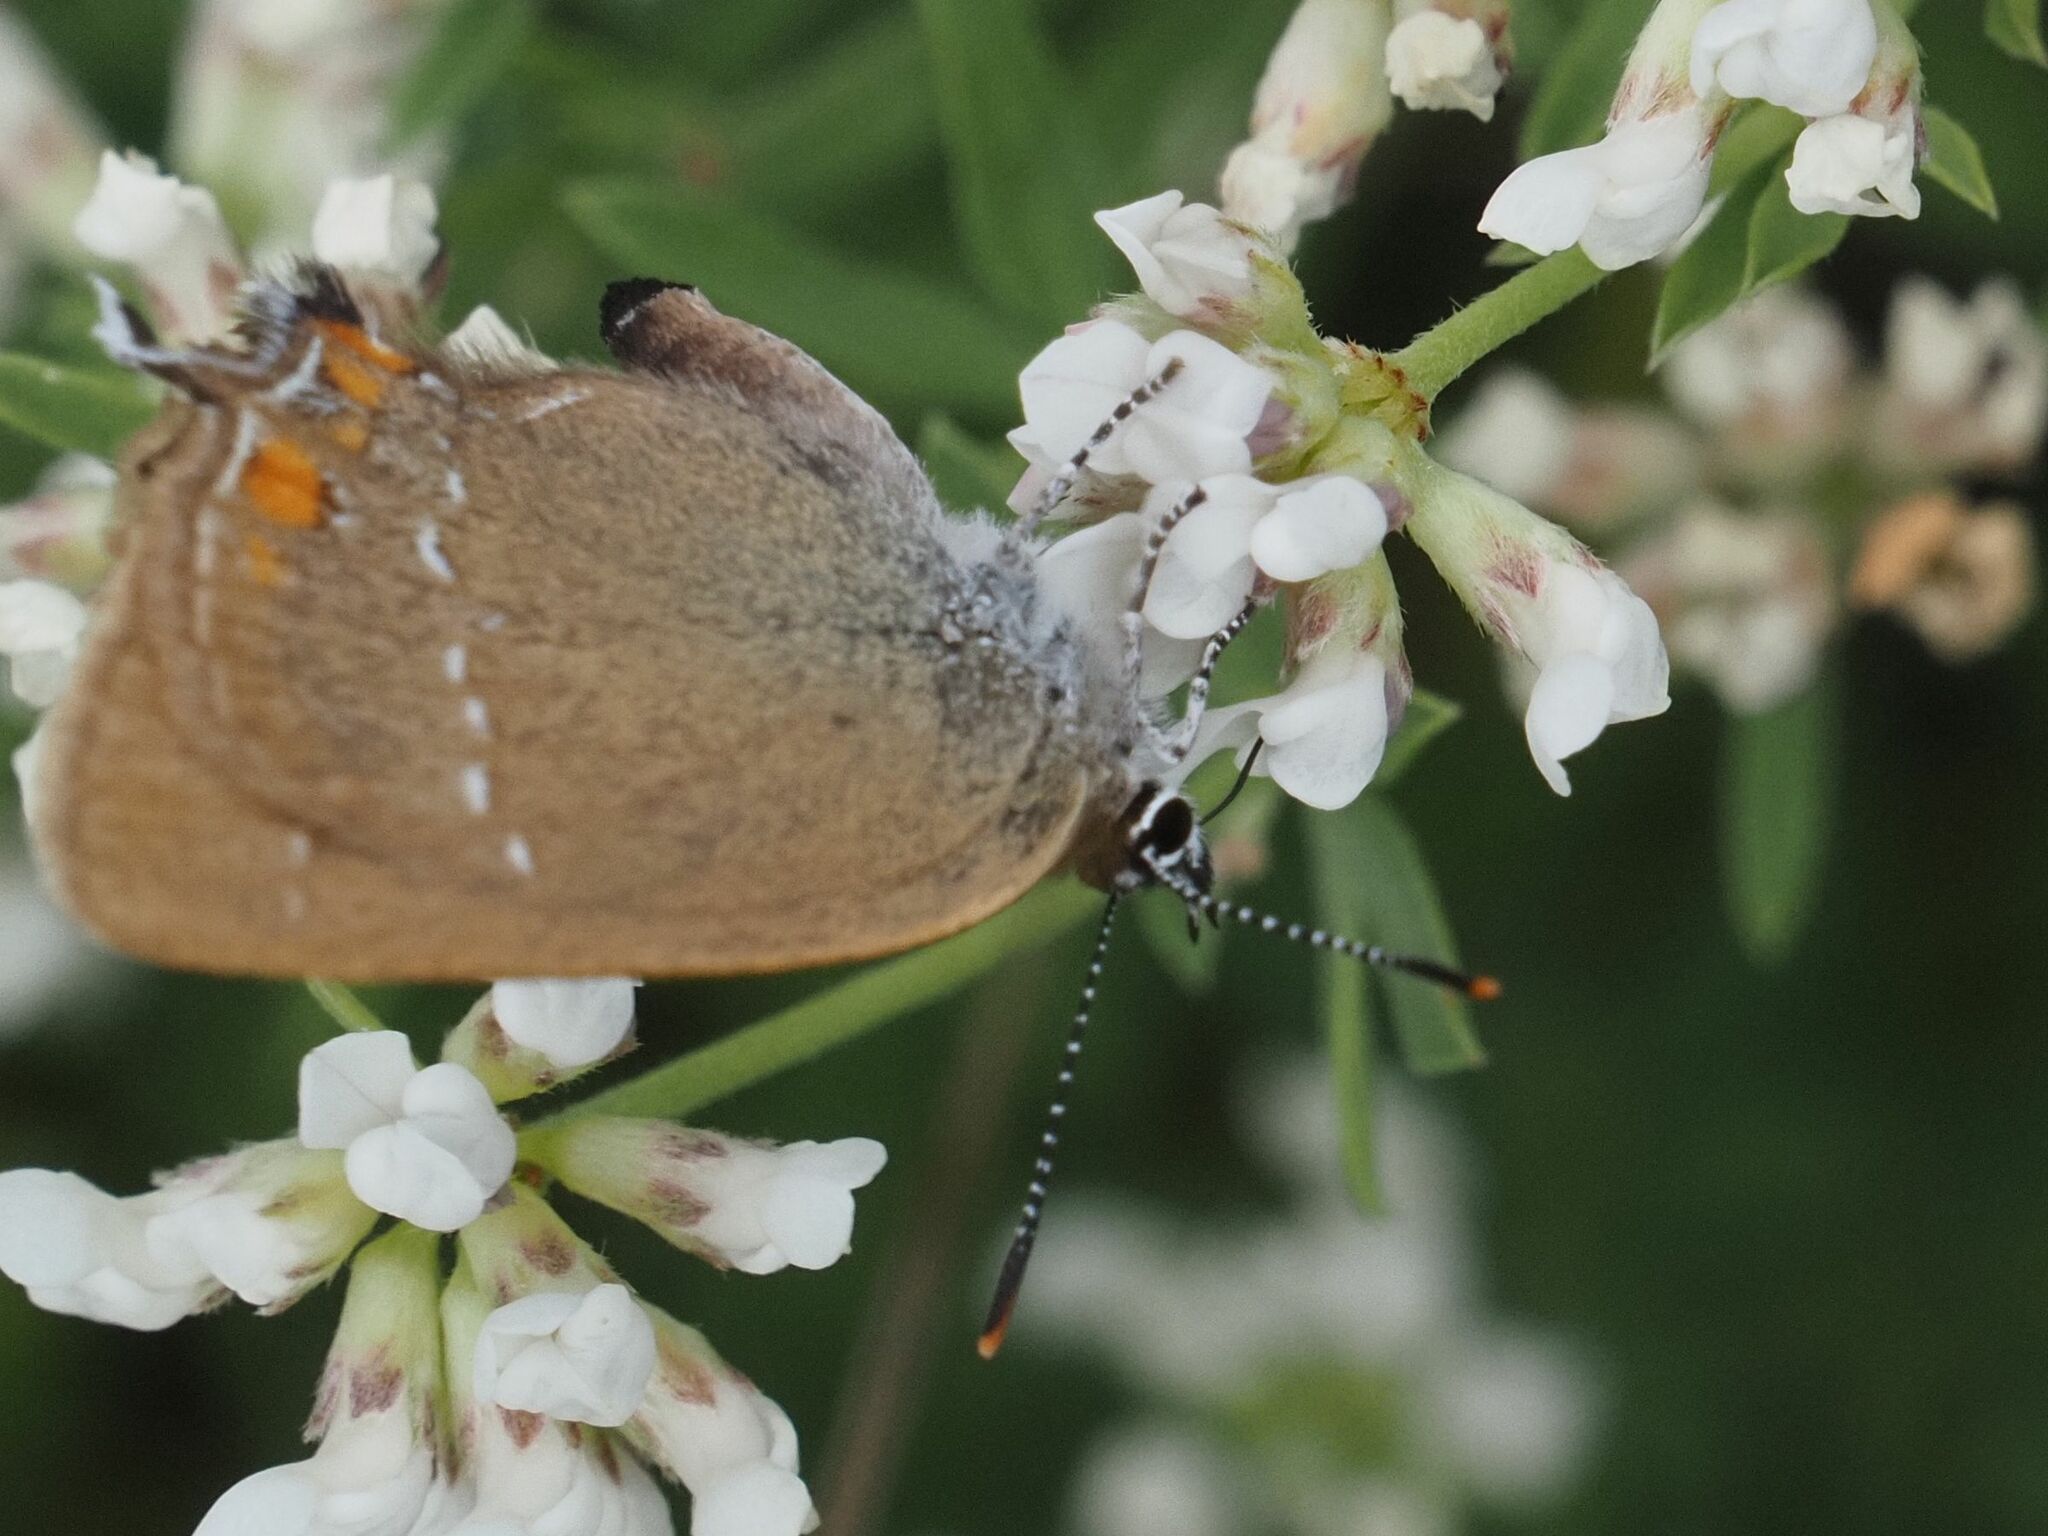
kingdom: Animalia
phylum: Arthropoda
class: Insecta
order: Lepidoptera
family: Lycaenidae
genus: Strymon
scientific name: Strymon acaciae
